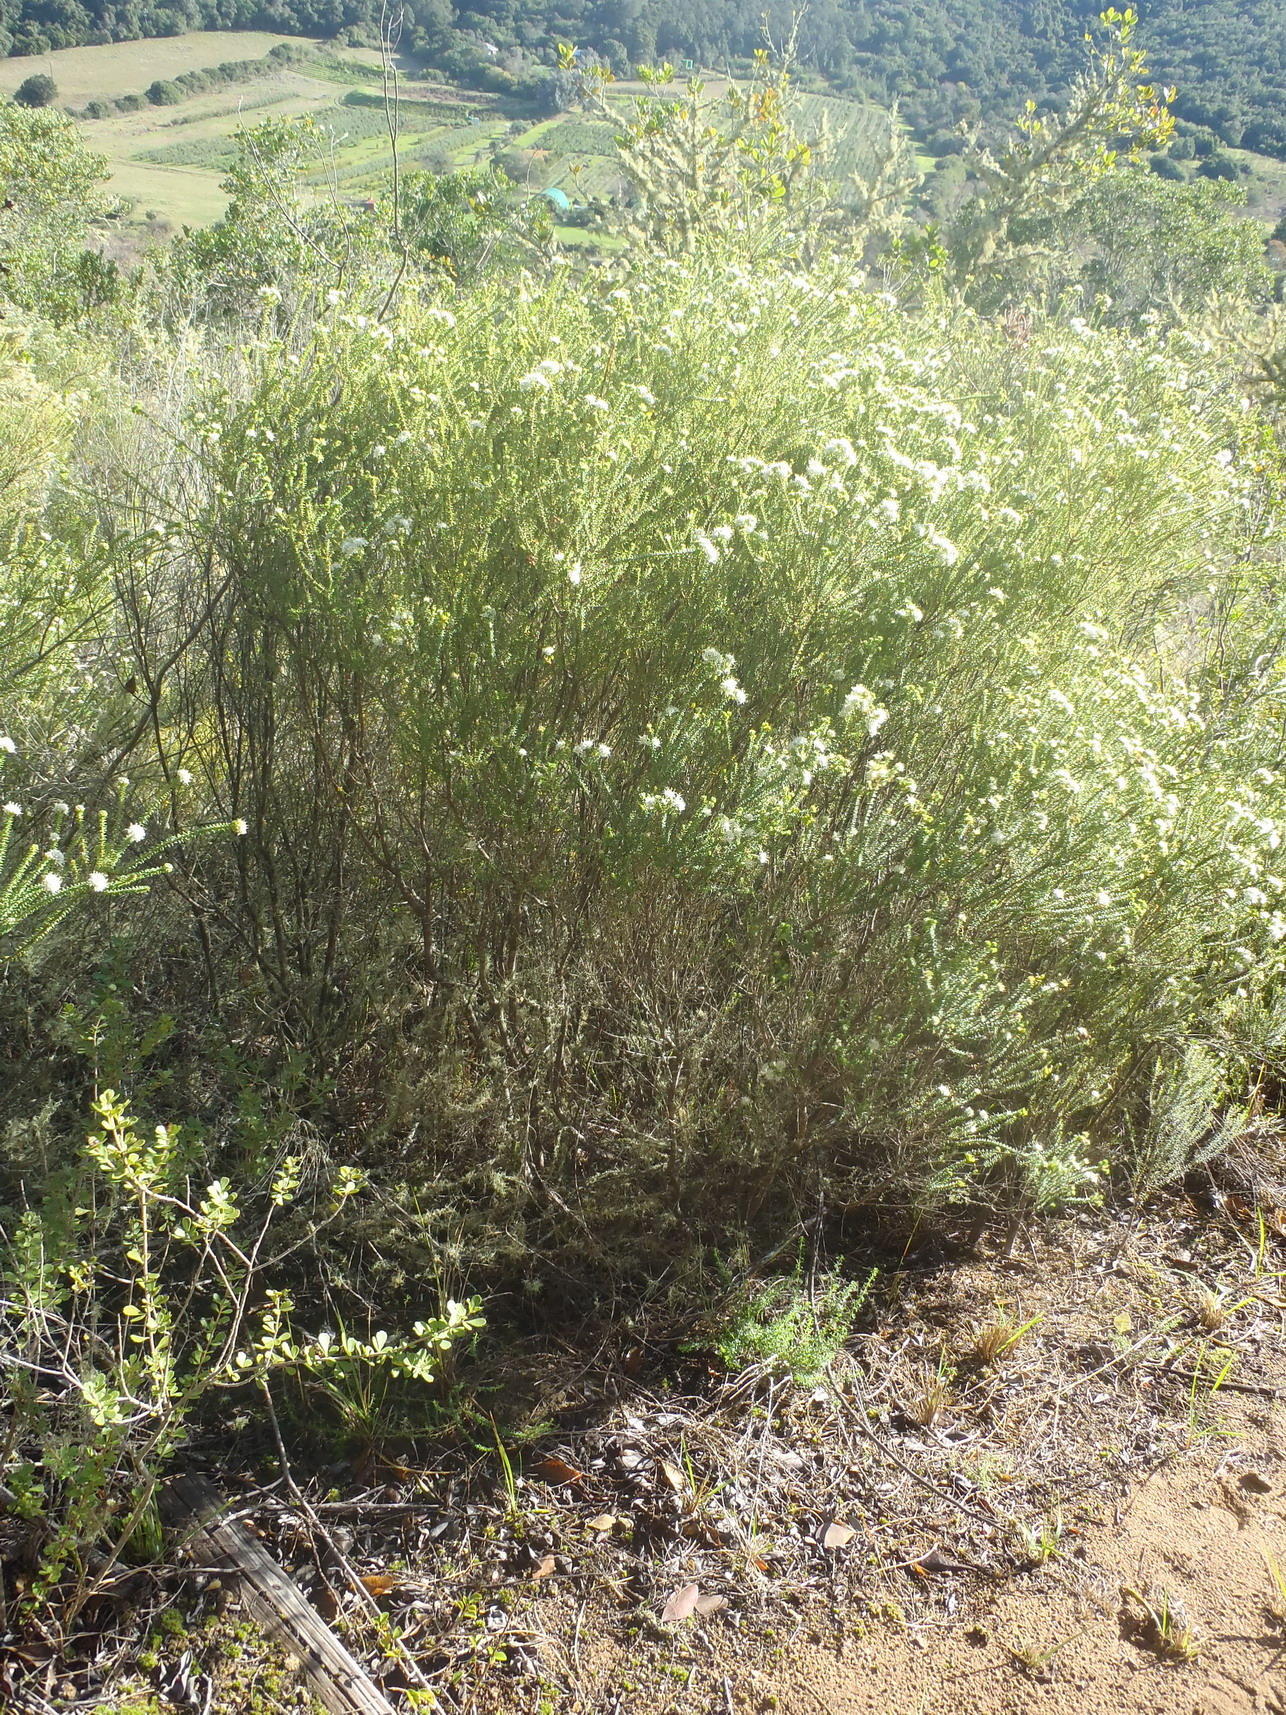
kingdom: Plantae
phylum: Tracheophyta
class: Magnoliopsida
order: Sapindales
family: Rutaceae
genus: Agathosma
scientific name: Agathosma apiculata
